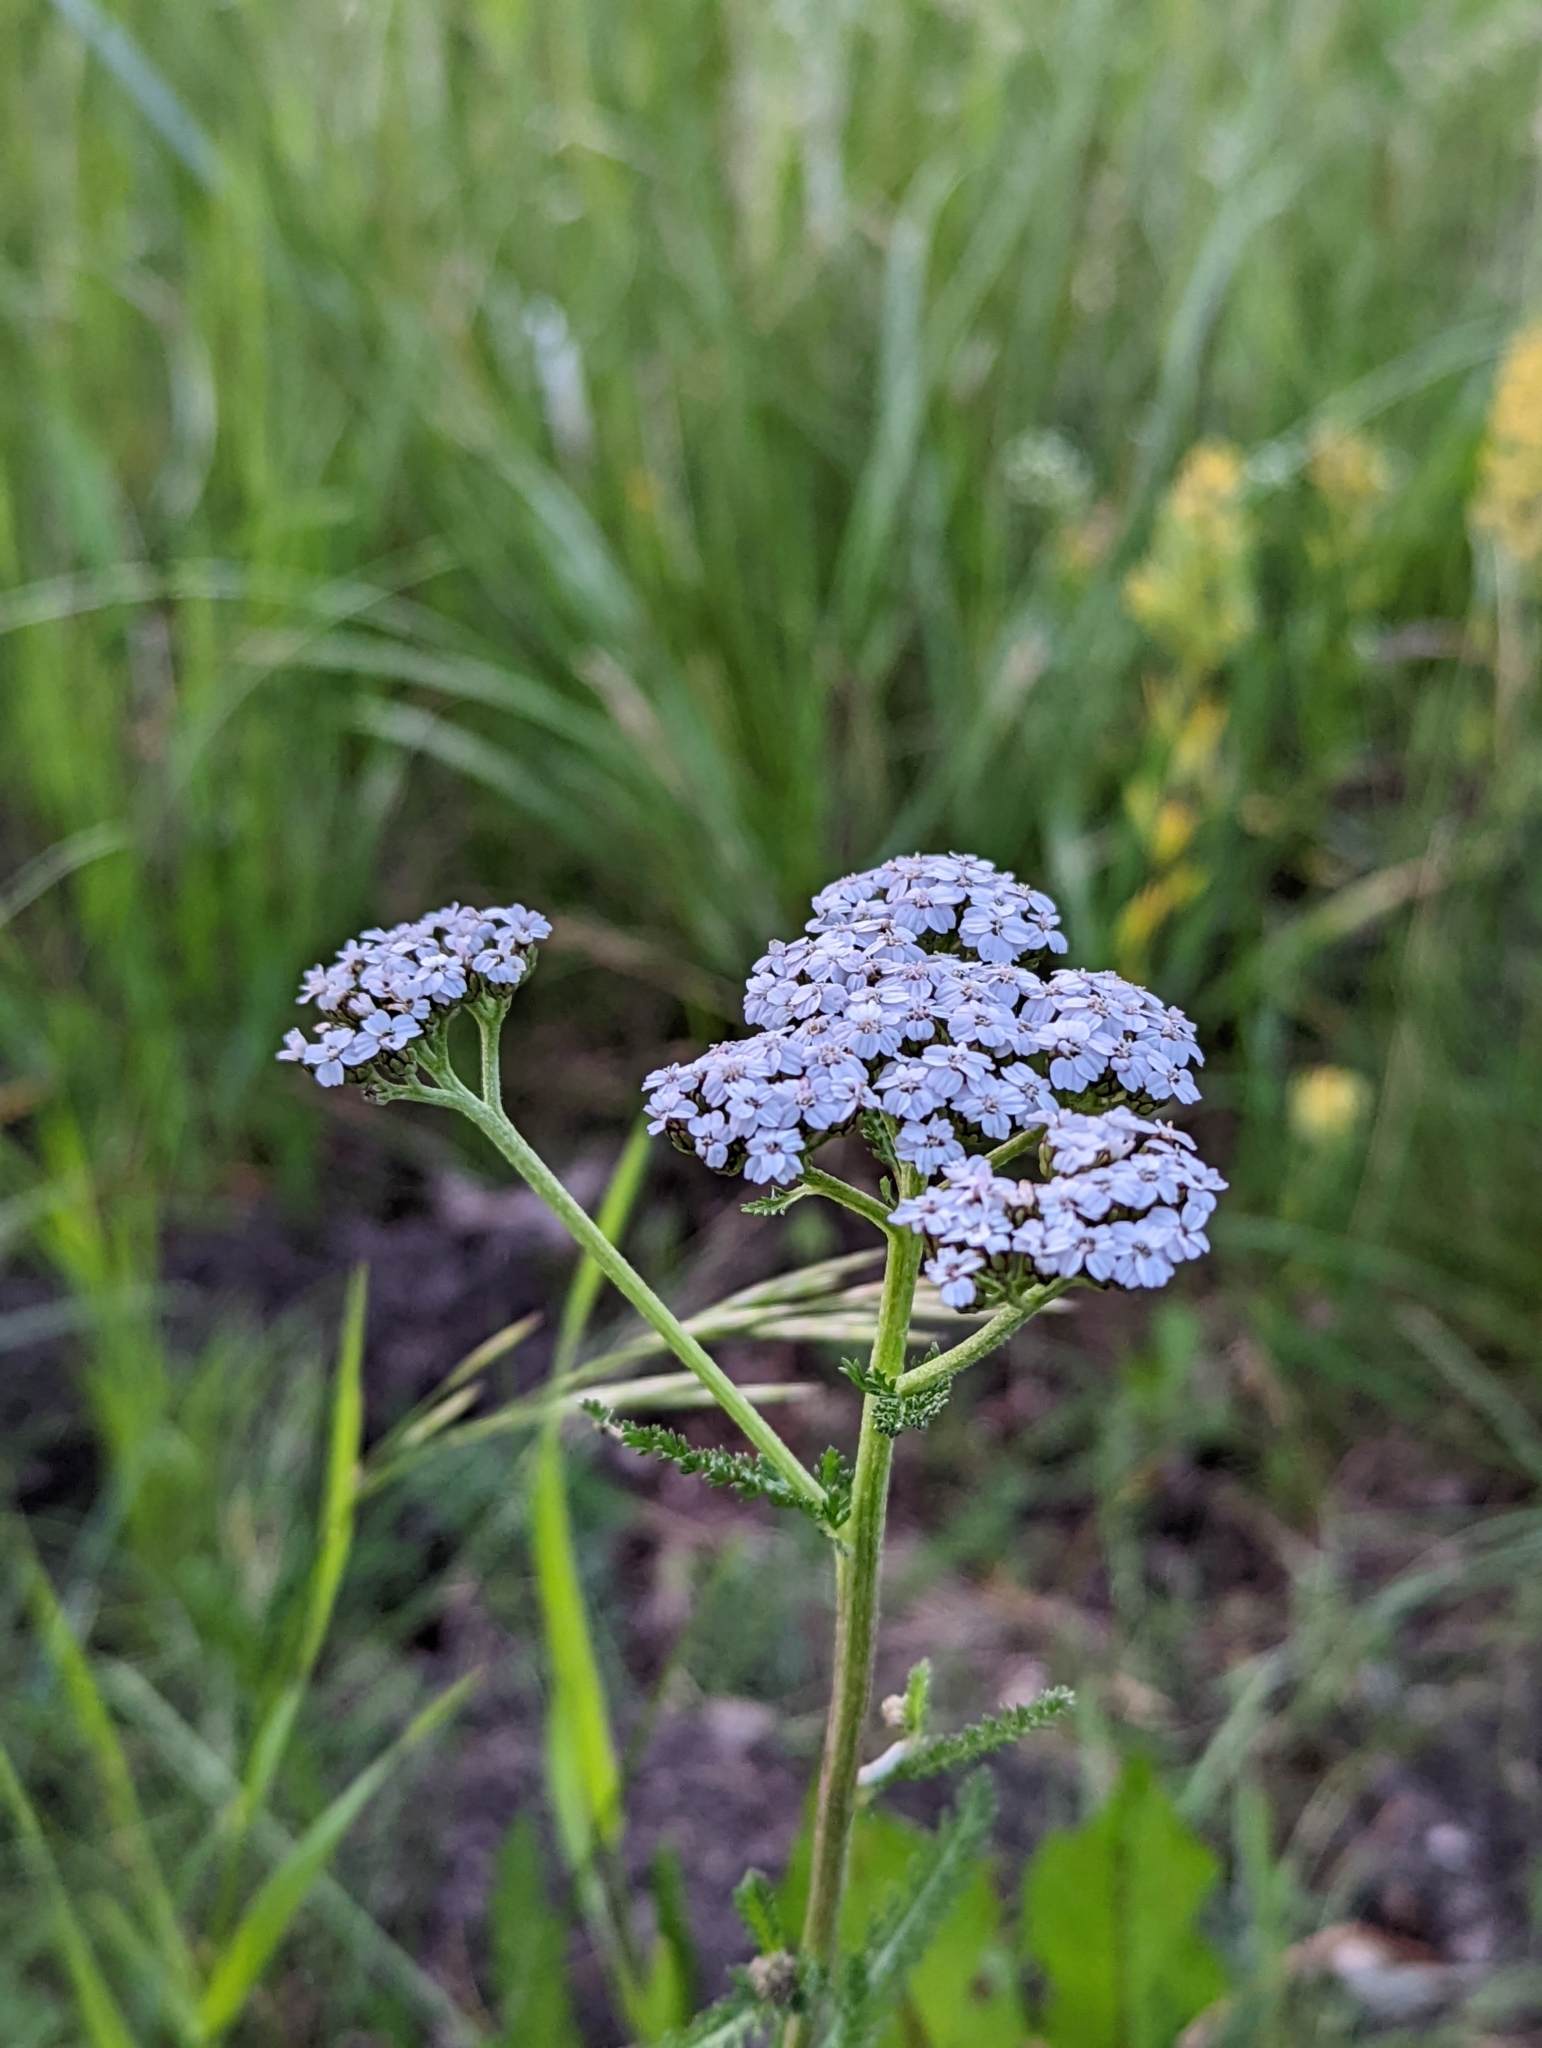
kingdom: Plantae
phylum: Tracheophyta
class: Magnoliopsida
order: Asterales
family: Asteraceae
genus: Achillea
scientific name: Achillea millefolium
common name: Yarrow
